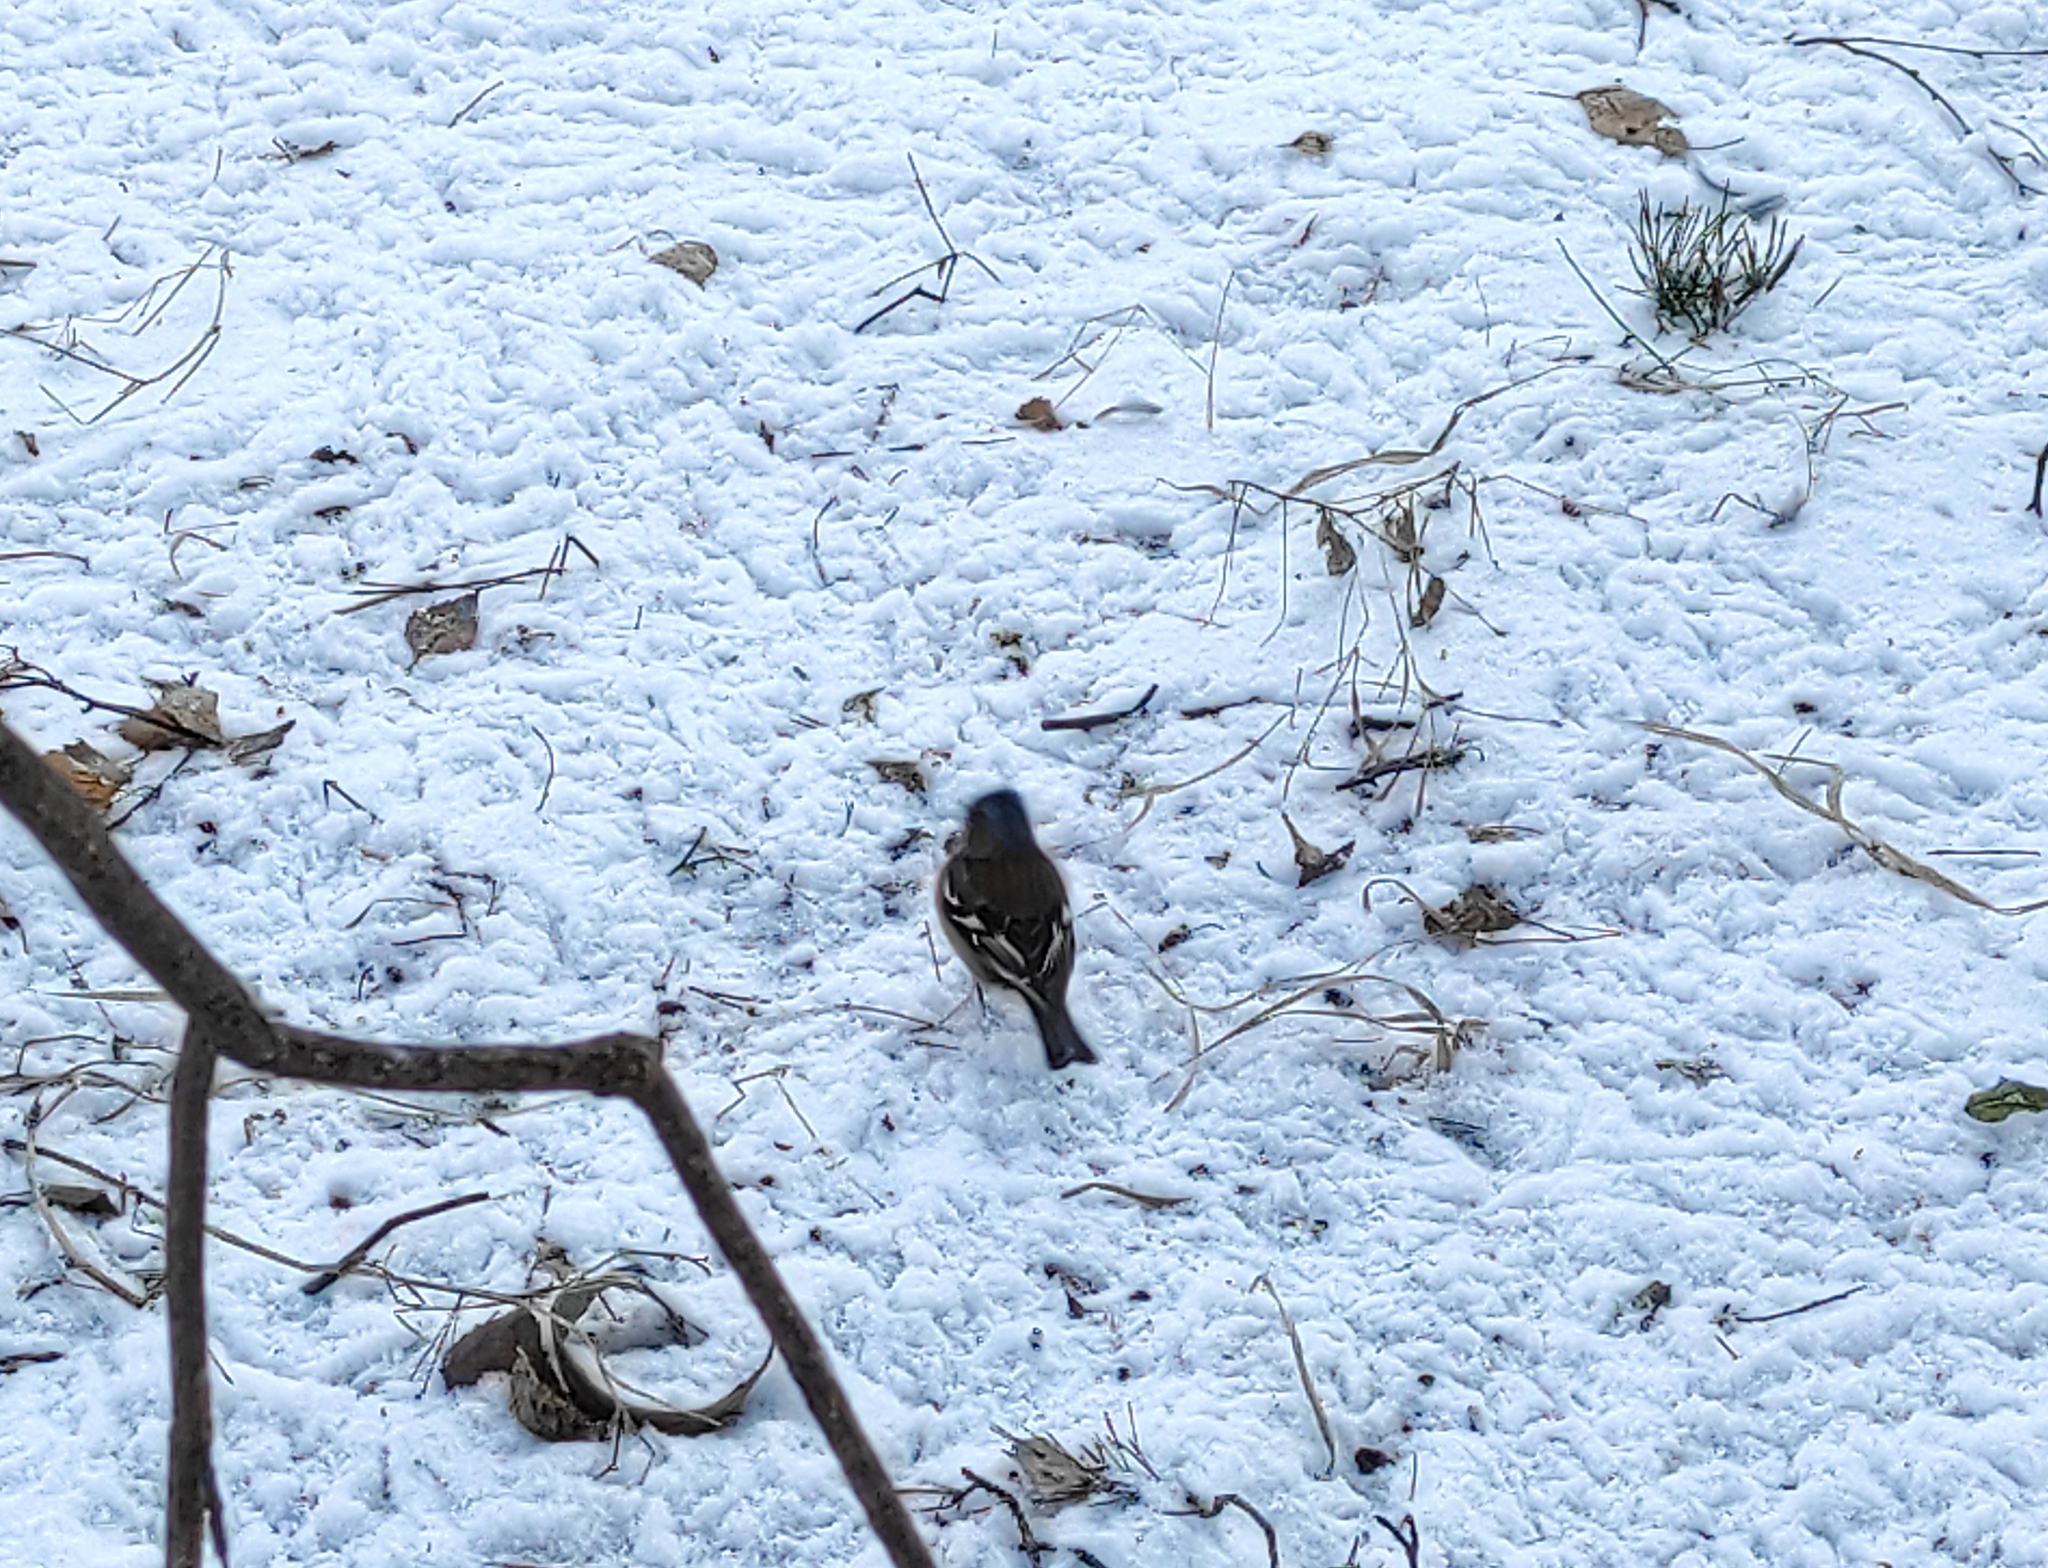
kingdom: Animalia
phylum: Chordata
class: Aves
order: Passeriformes
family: Fringillidae
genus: Fringilla
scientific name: Fringilla coelebs
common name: Common chaffinch
